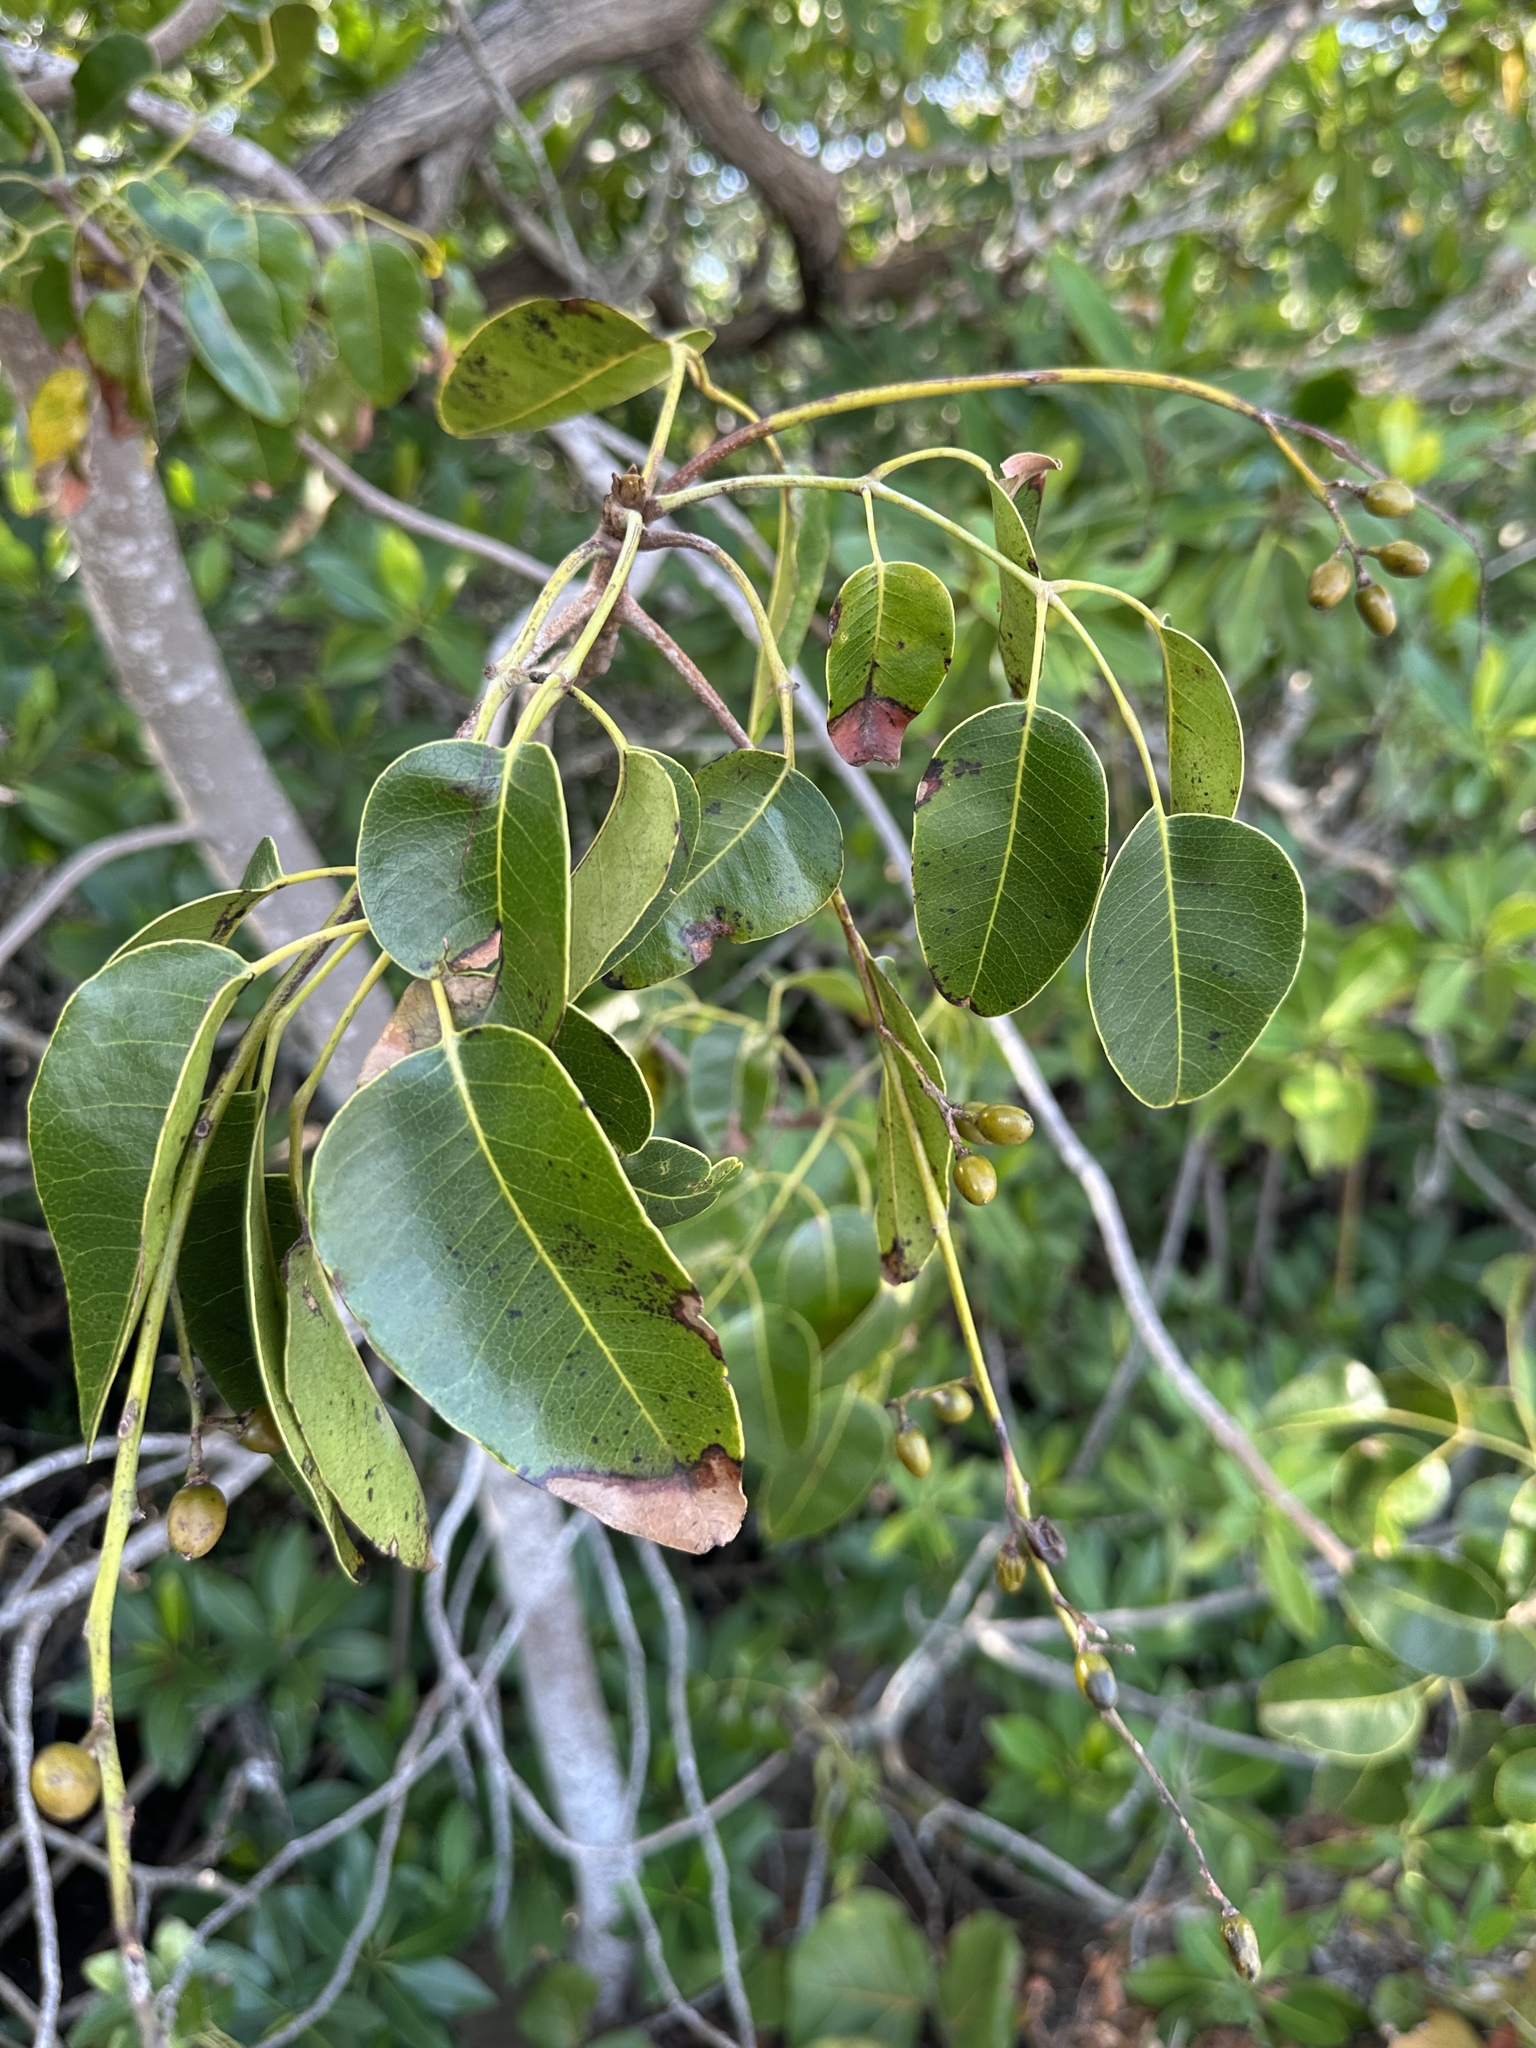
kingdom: Plantae
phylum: Tracheophyta
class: Magnoliopsida
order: Sapindales
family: Anacardiaceae
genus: Metopium
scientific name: Metopium toxiferum
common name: Florida poisontree
